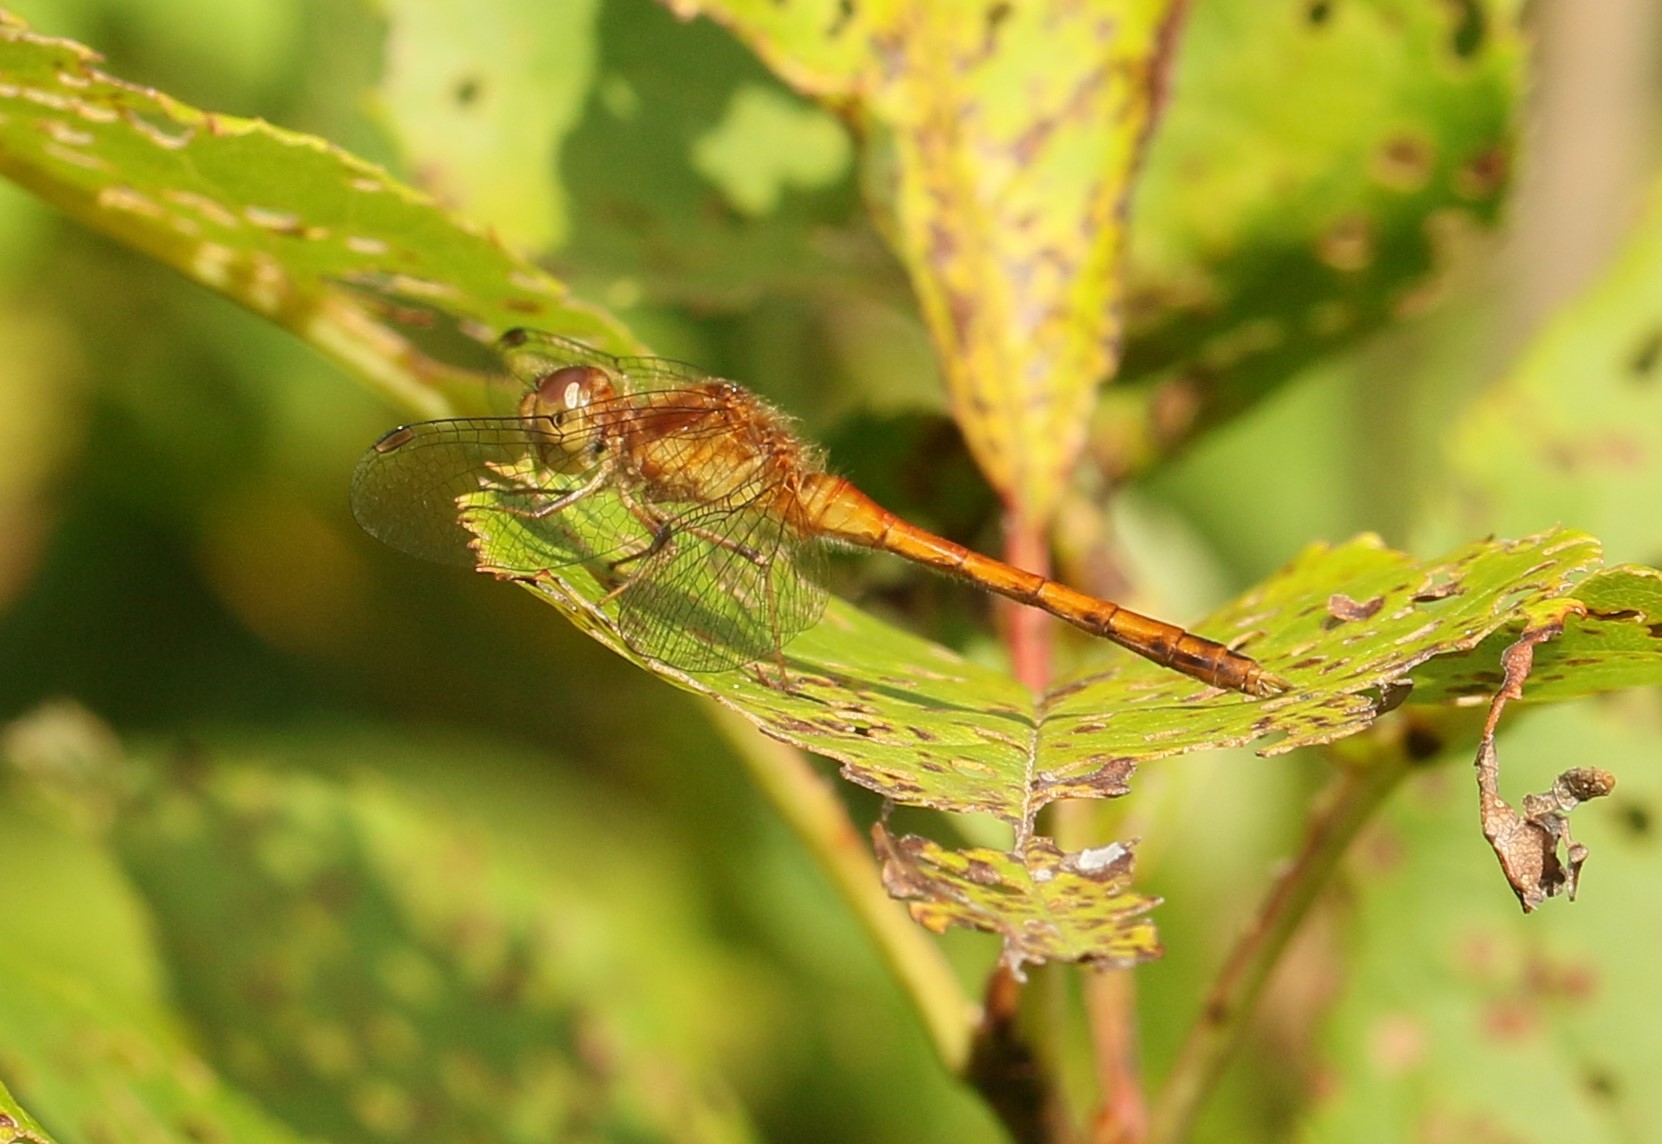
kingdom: Animalia
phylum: Arthropoda
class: Insecta
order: Odonata
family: Libellulidae
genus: Sympetrum
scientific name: Sympetrum vicinum
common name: Autumn meadowhawk
